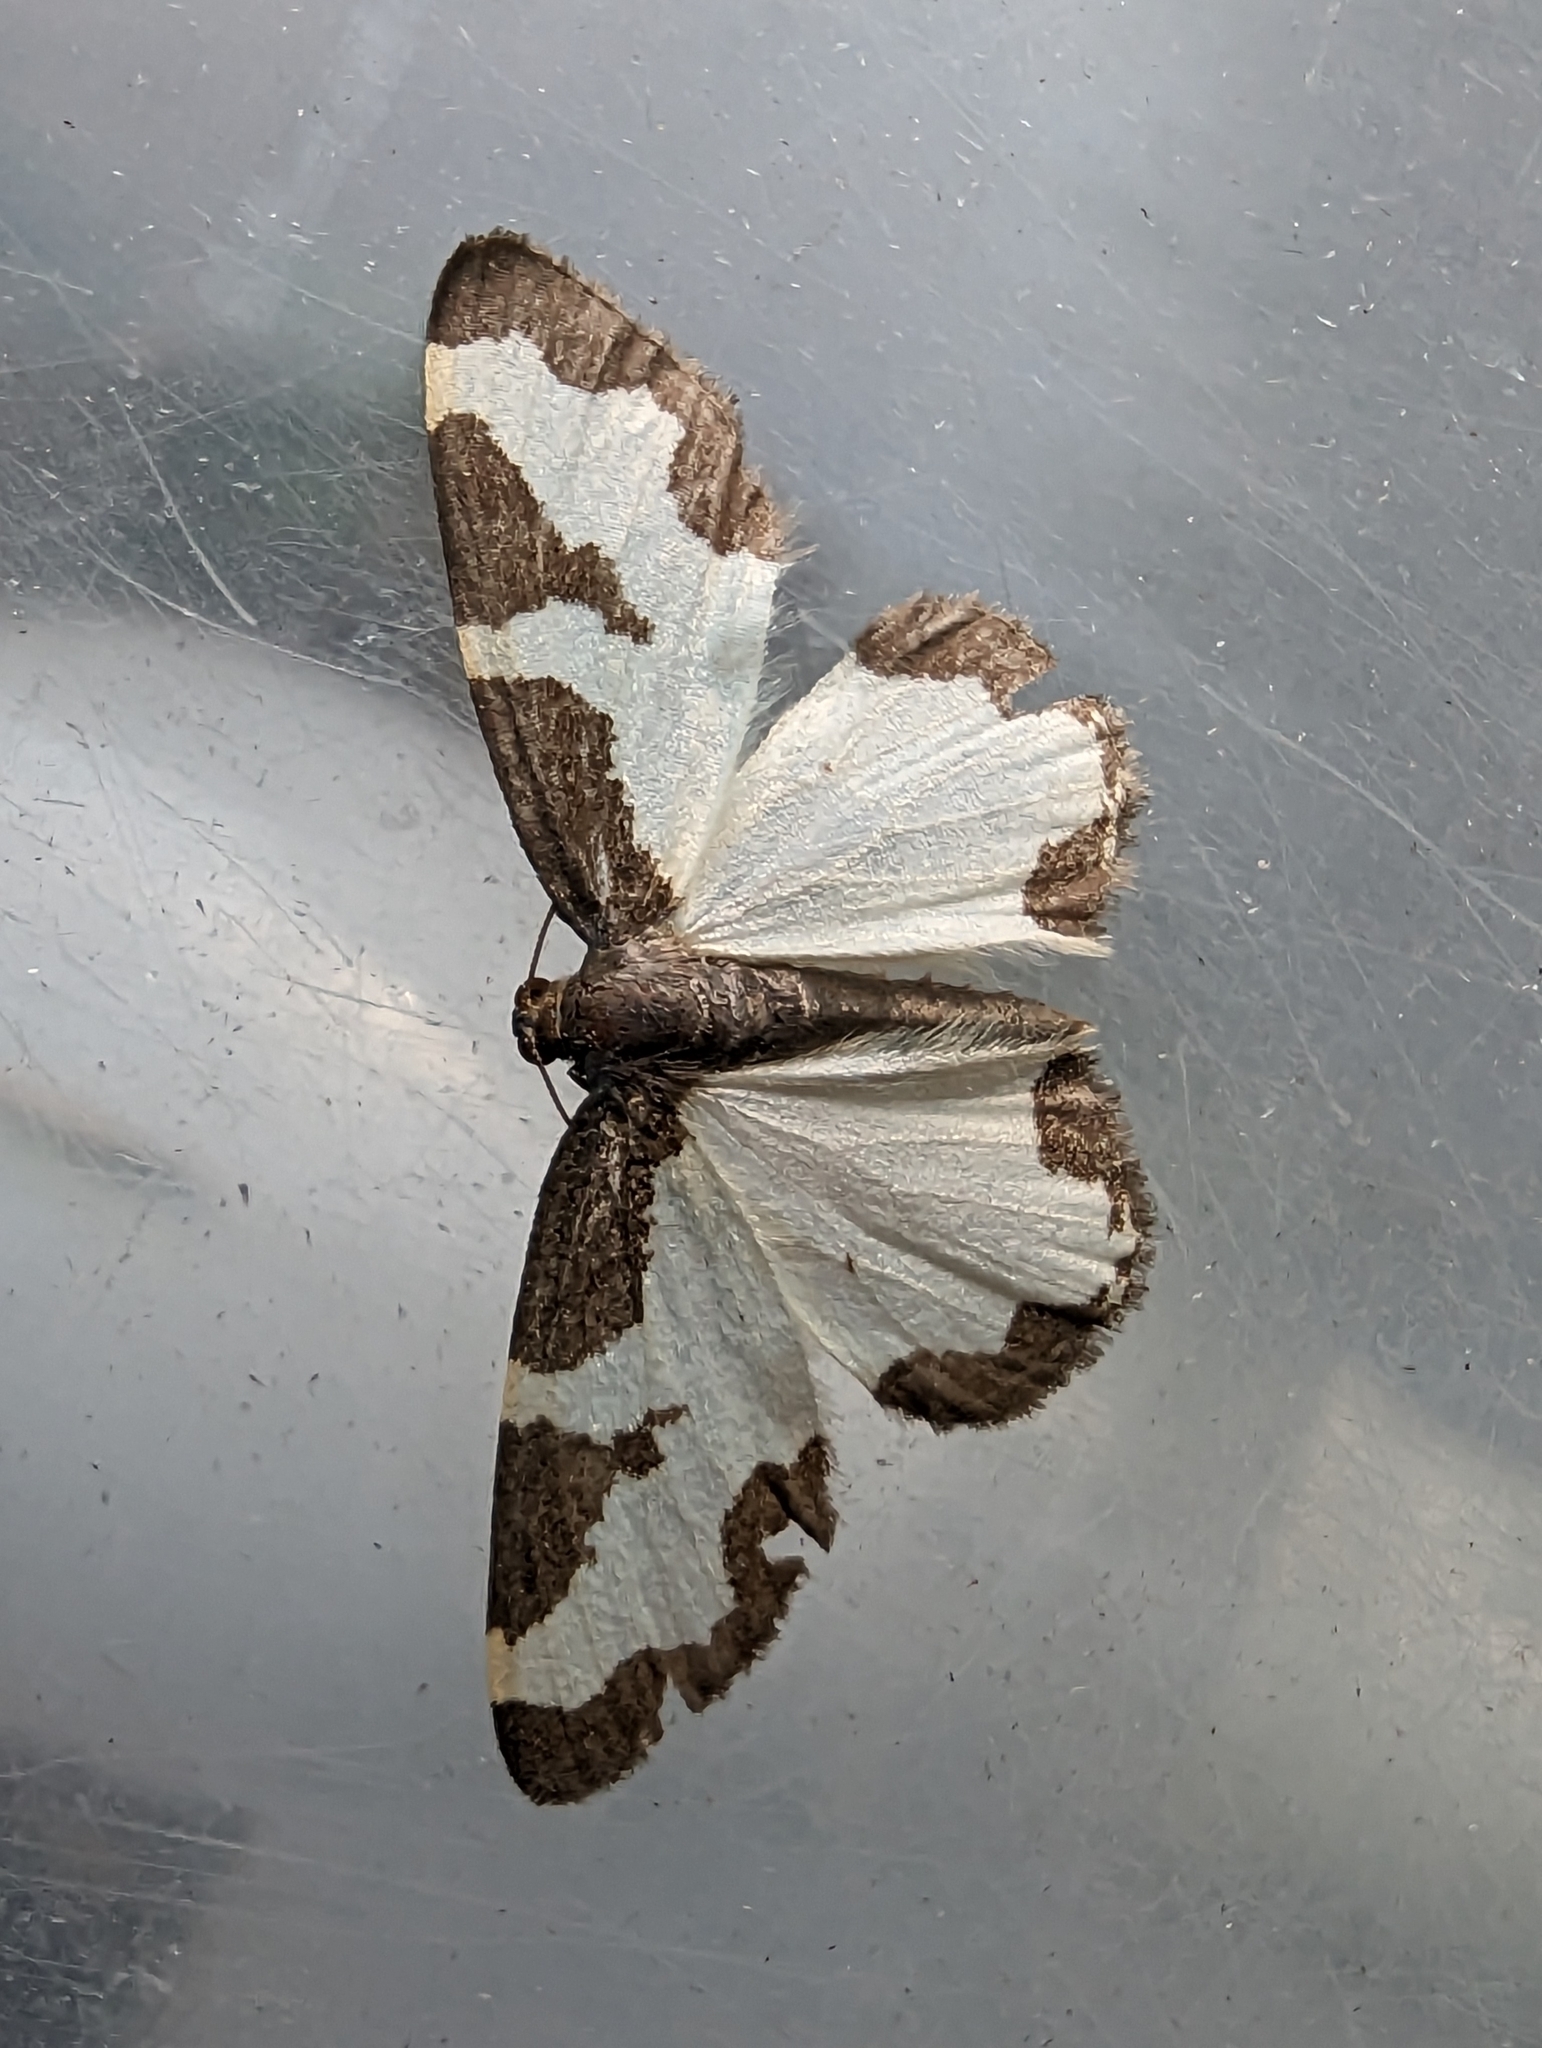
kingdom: Animalia
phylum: Arthropoda
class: Insecta
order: Lepidoptera
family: Geometridae
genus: Lomaspilis
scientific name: Lomaspilis marginata
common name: Clouded border
